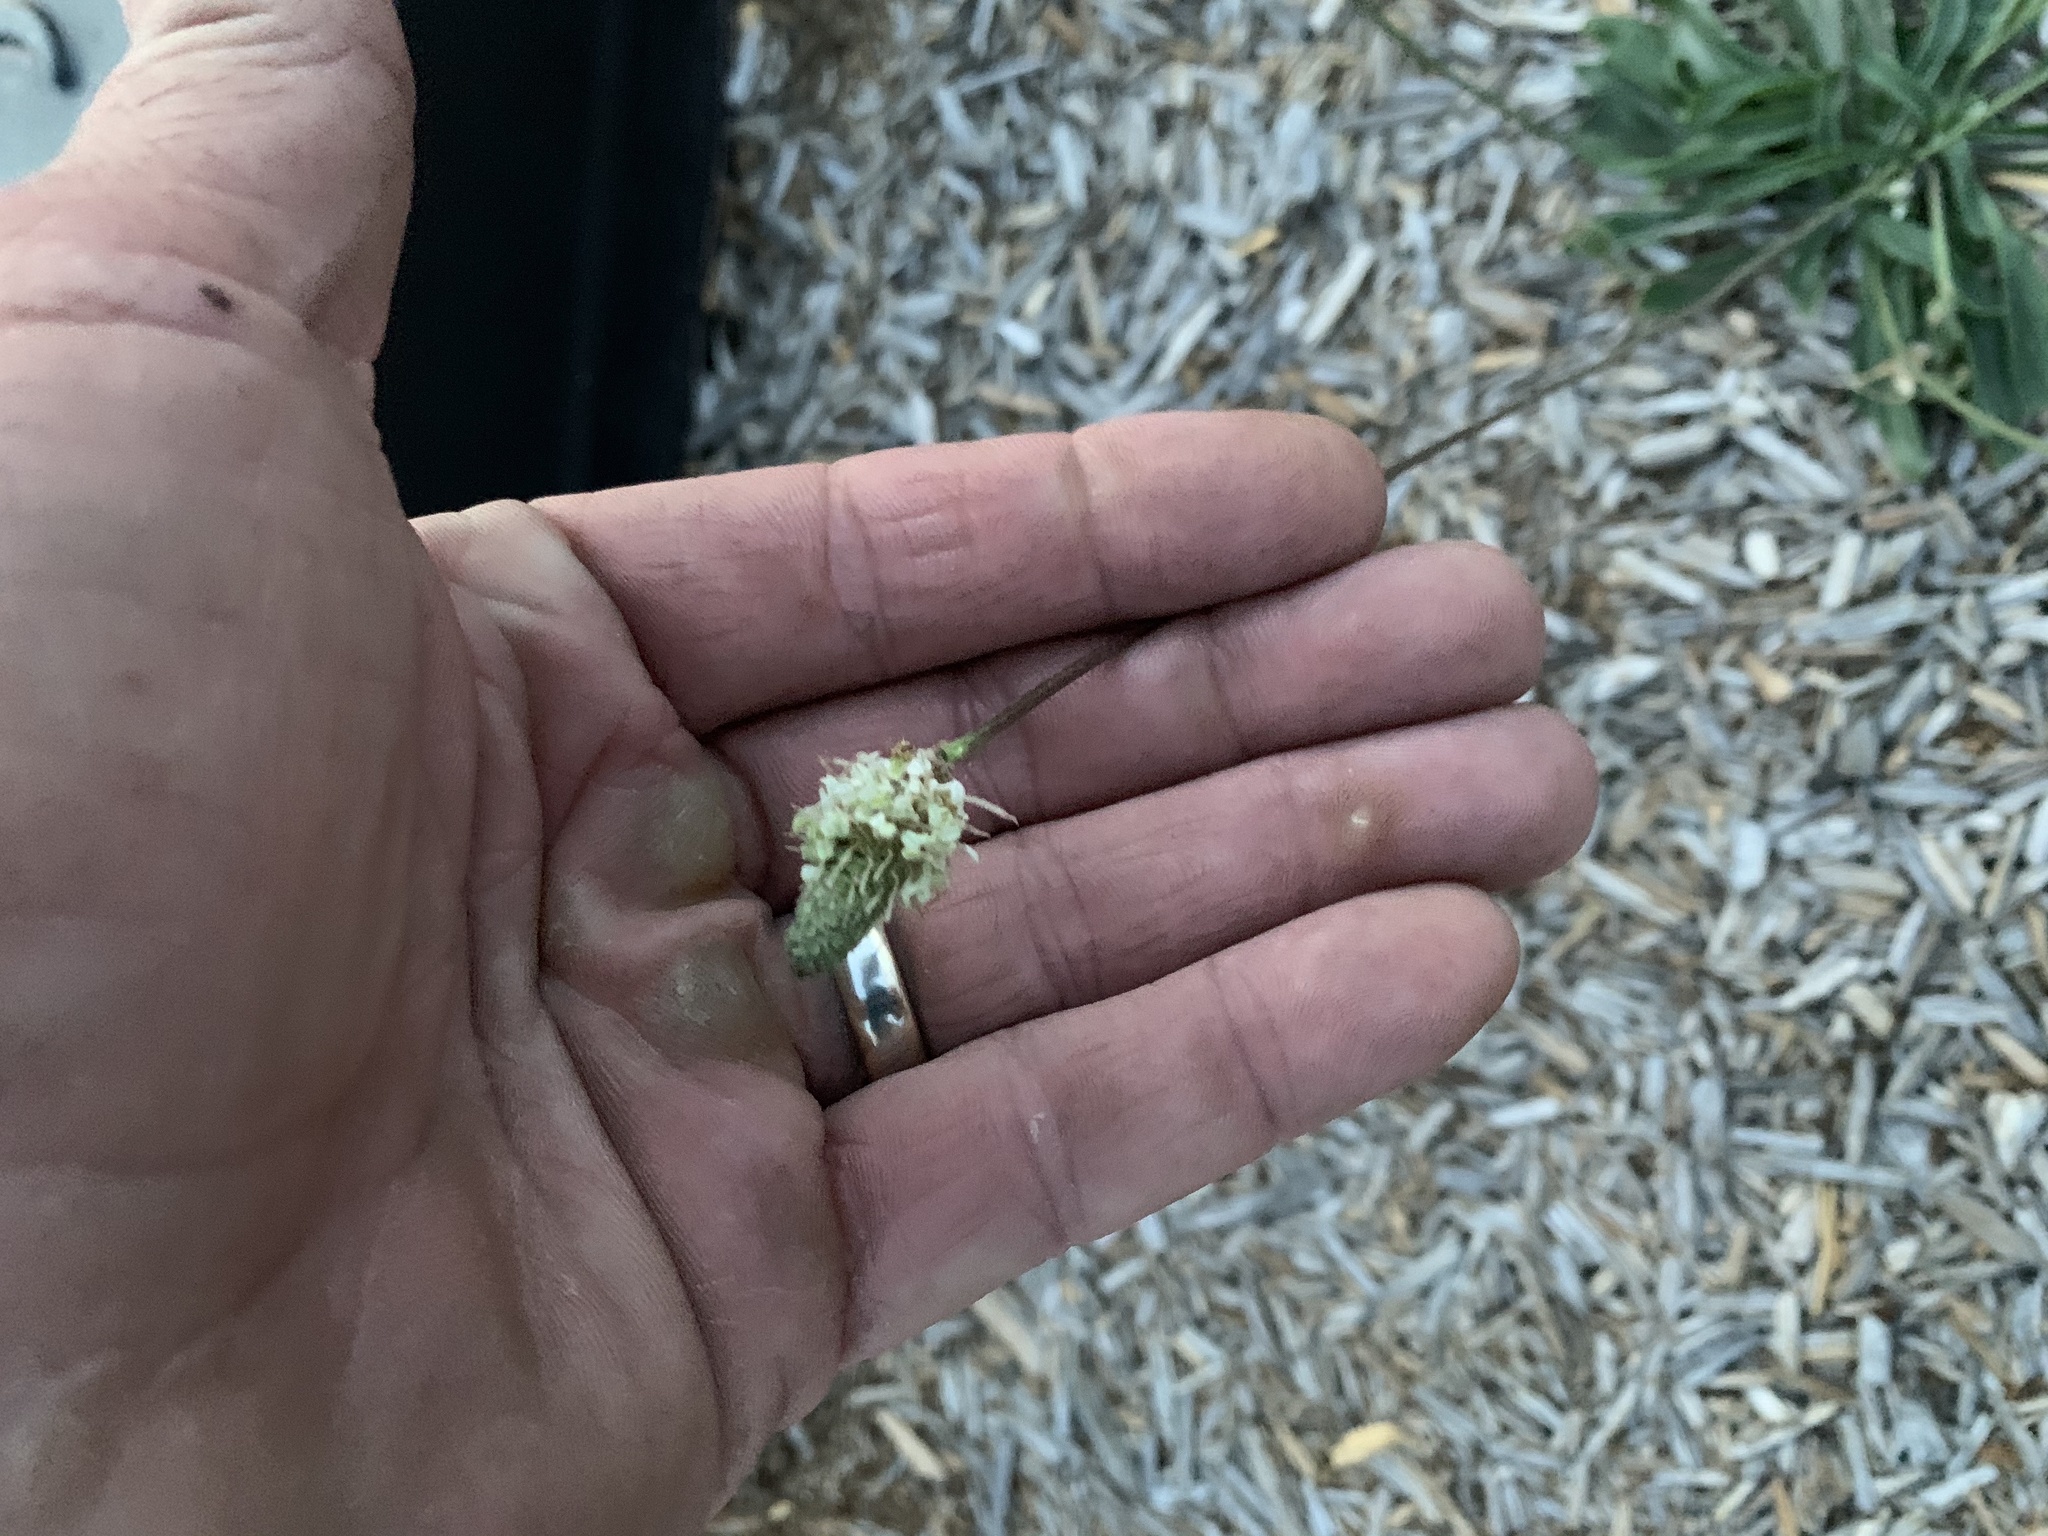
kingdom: Plantae
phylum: Tracheophyta
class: Magnoliopsida
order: Lamiales
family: Plantaginaceae
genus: Plantago
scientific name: Plantago lanceolata
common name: Ribwort plantain
